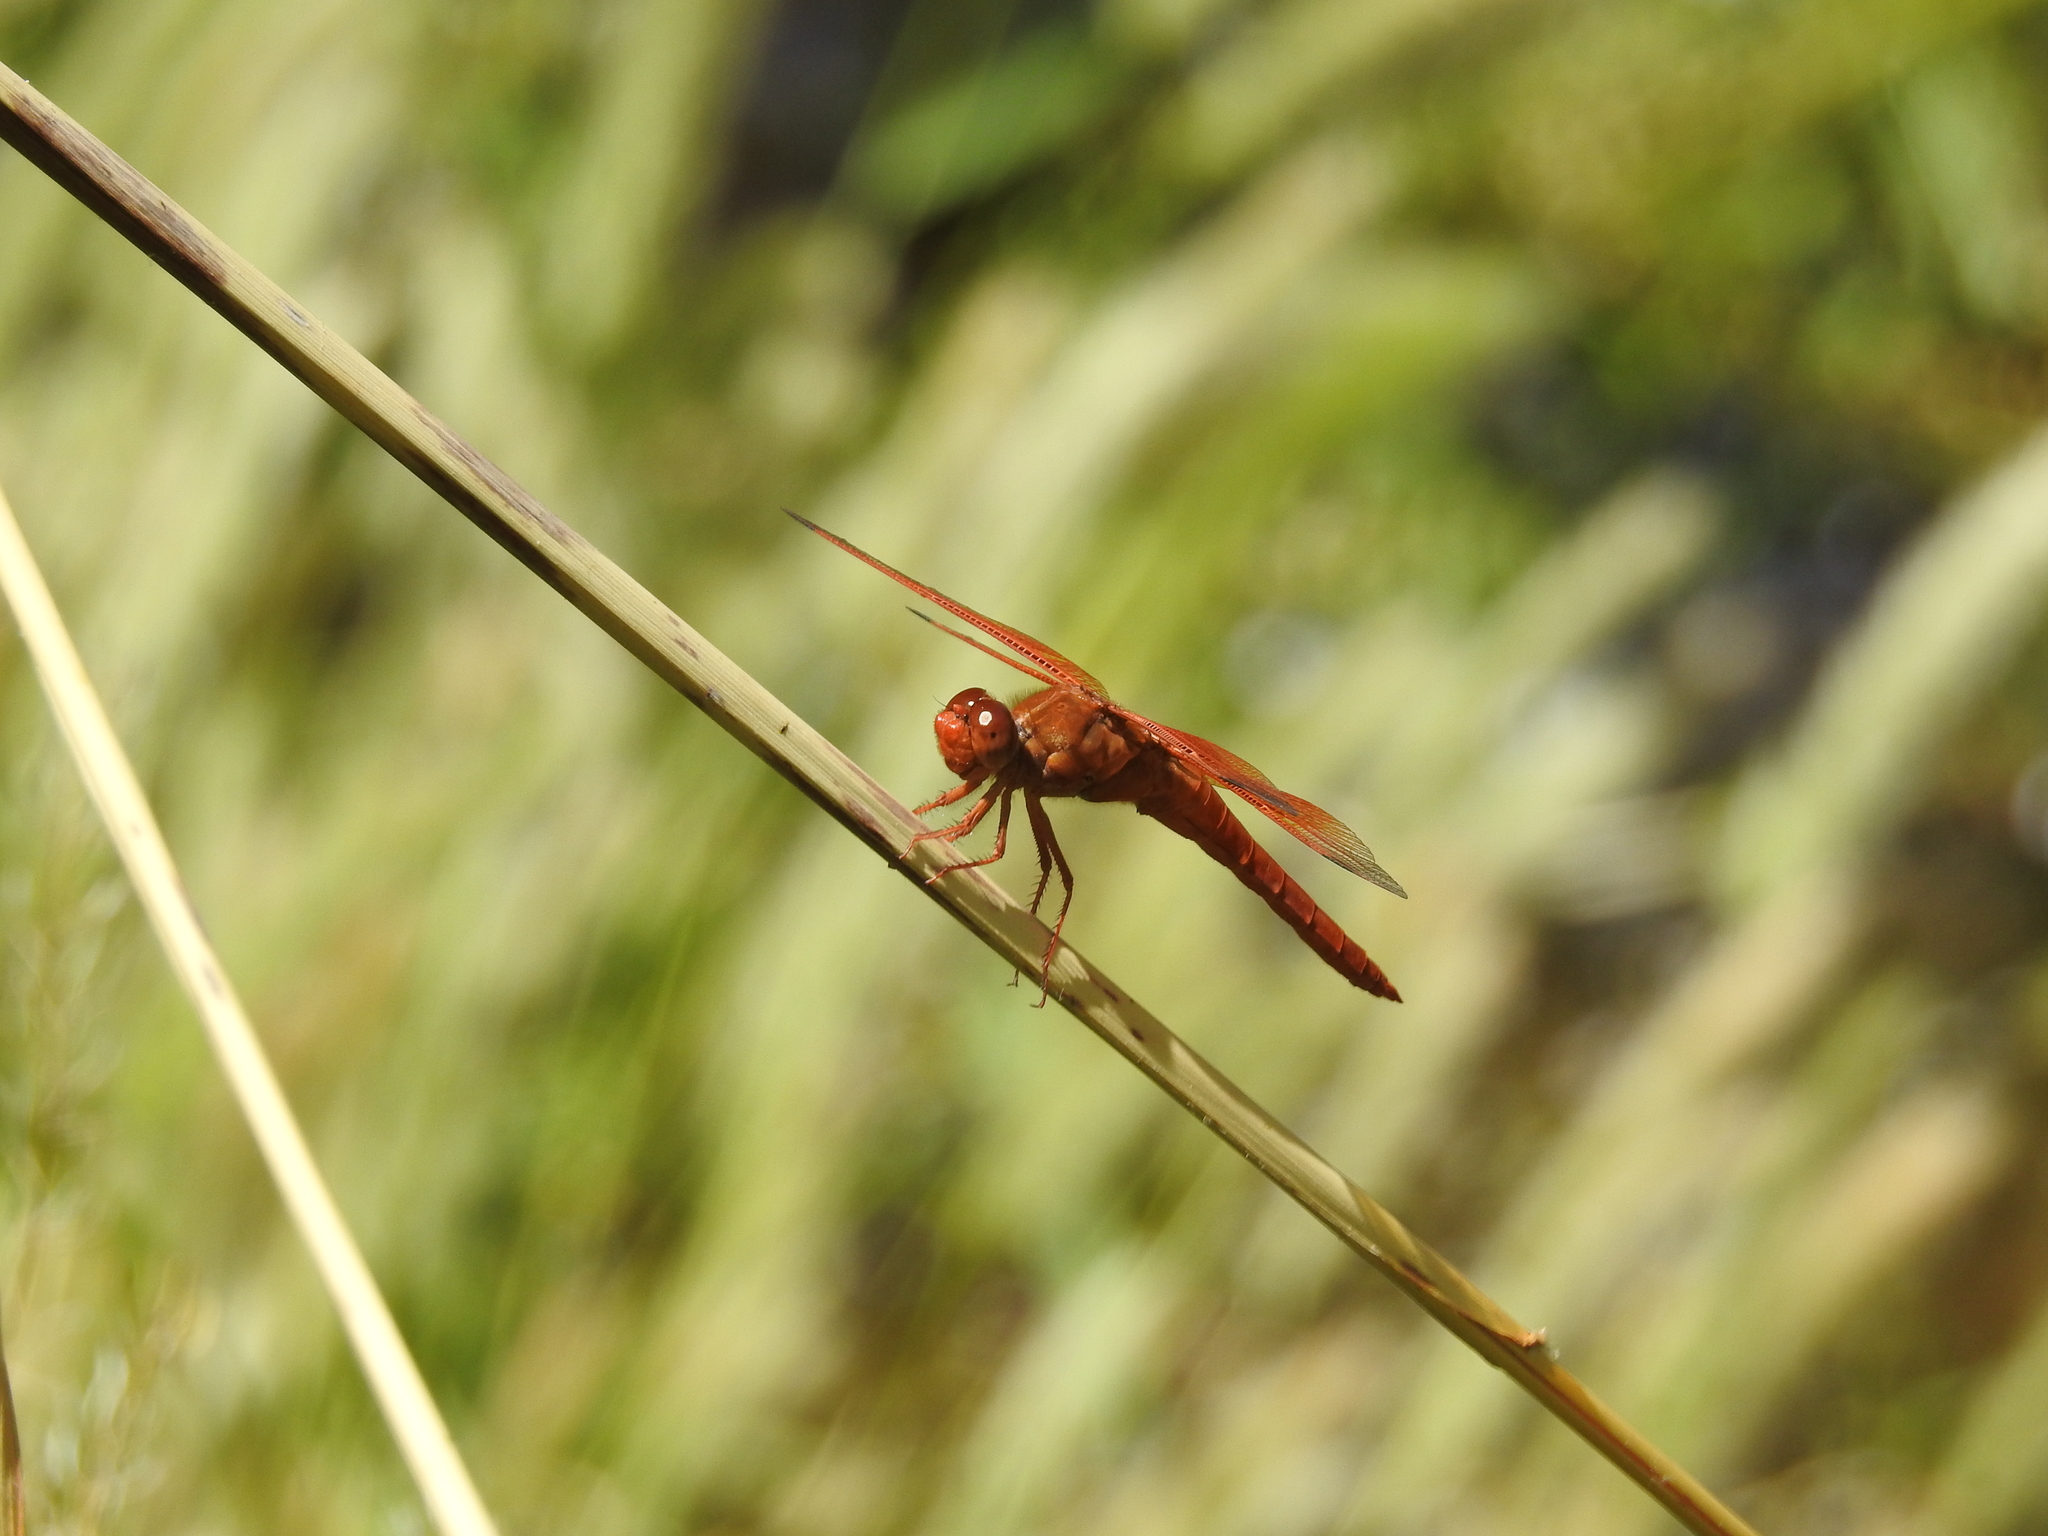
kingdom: Animalia
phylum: Arthropoda
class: Insecta
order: Odonata
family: Libellulidae
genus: Libellula
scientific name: Libellula saturata
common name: Flame skimmer
